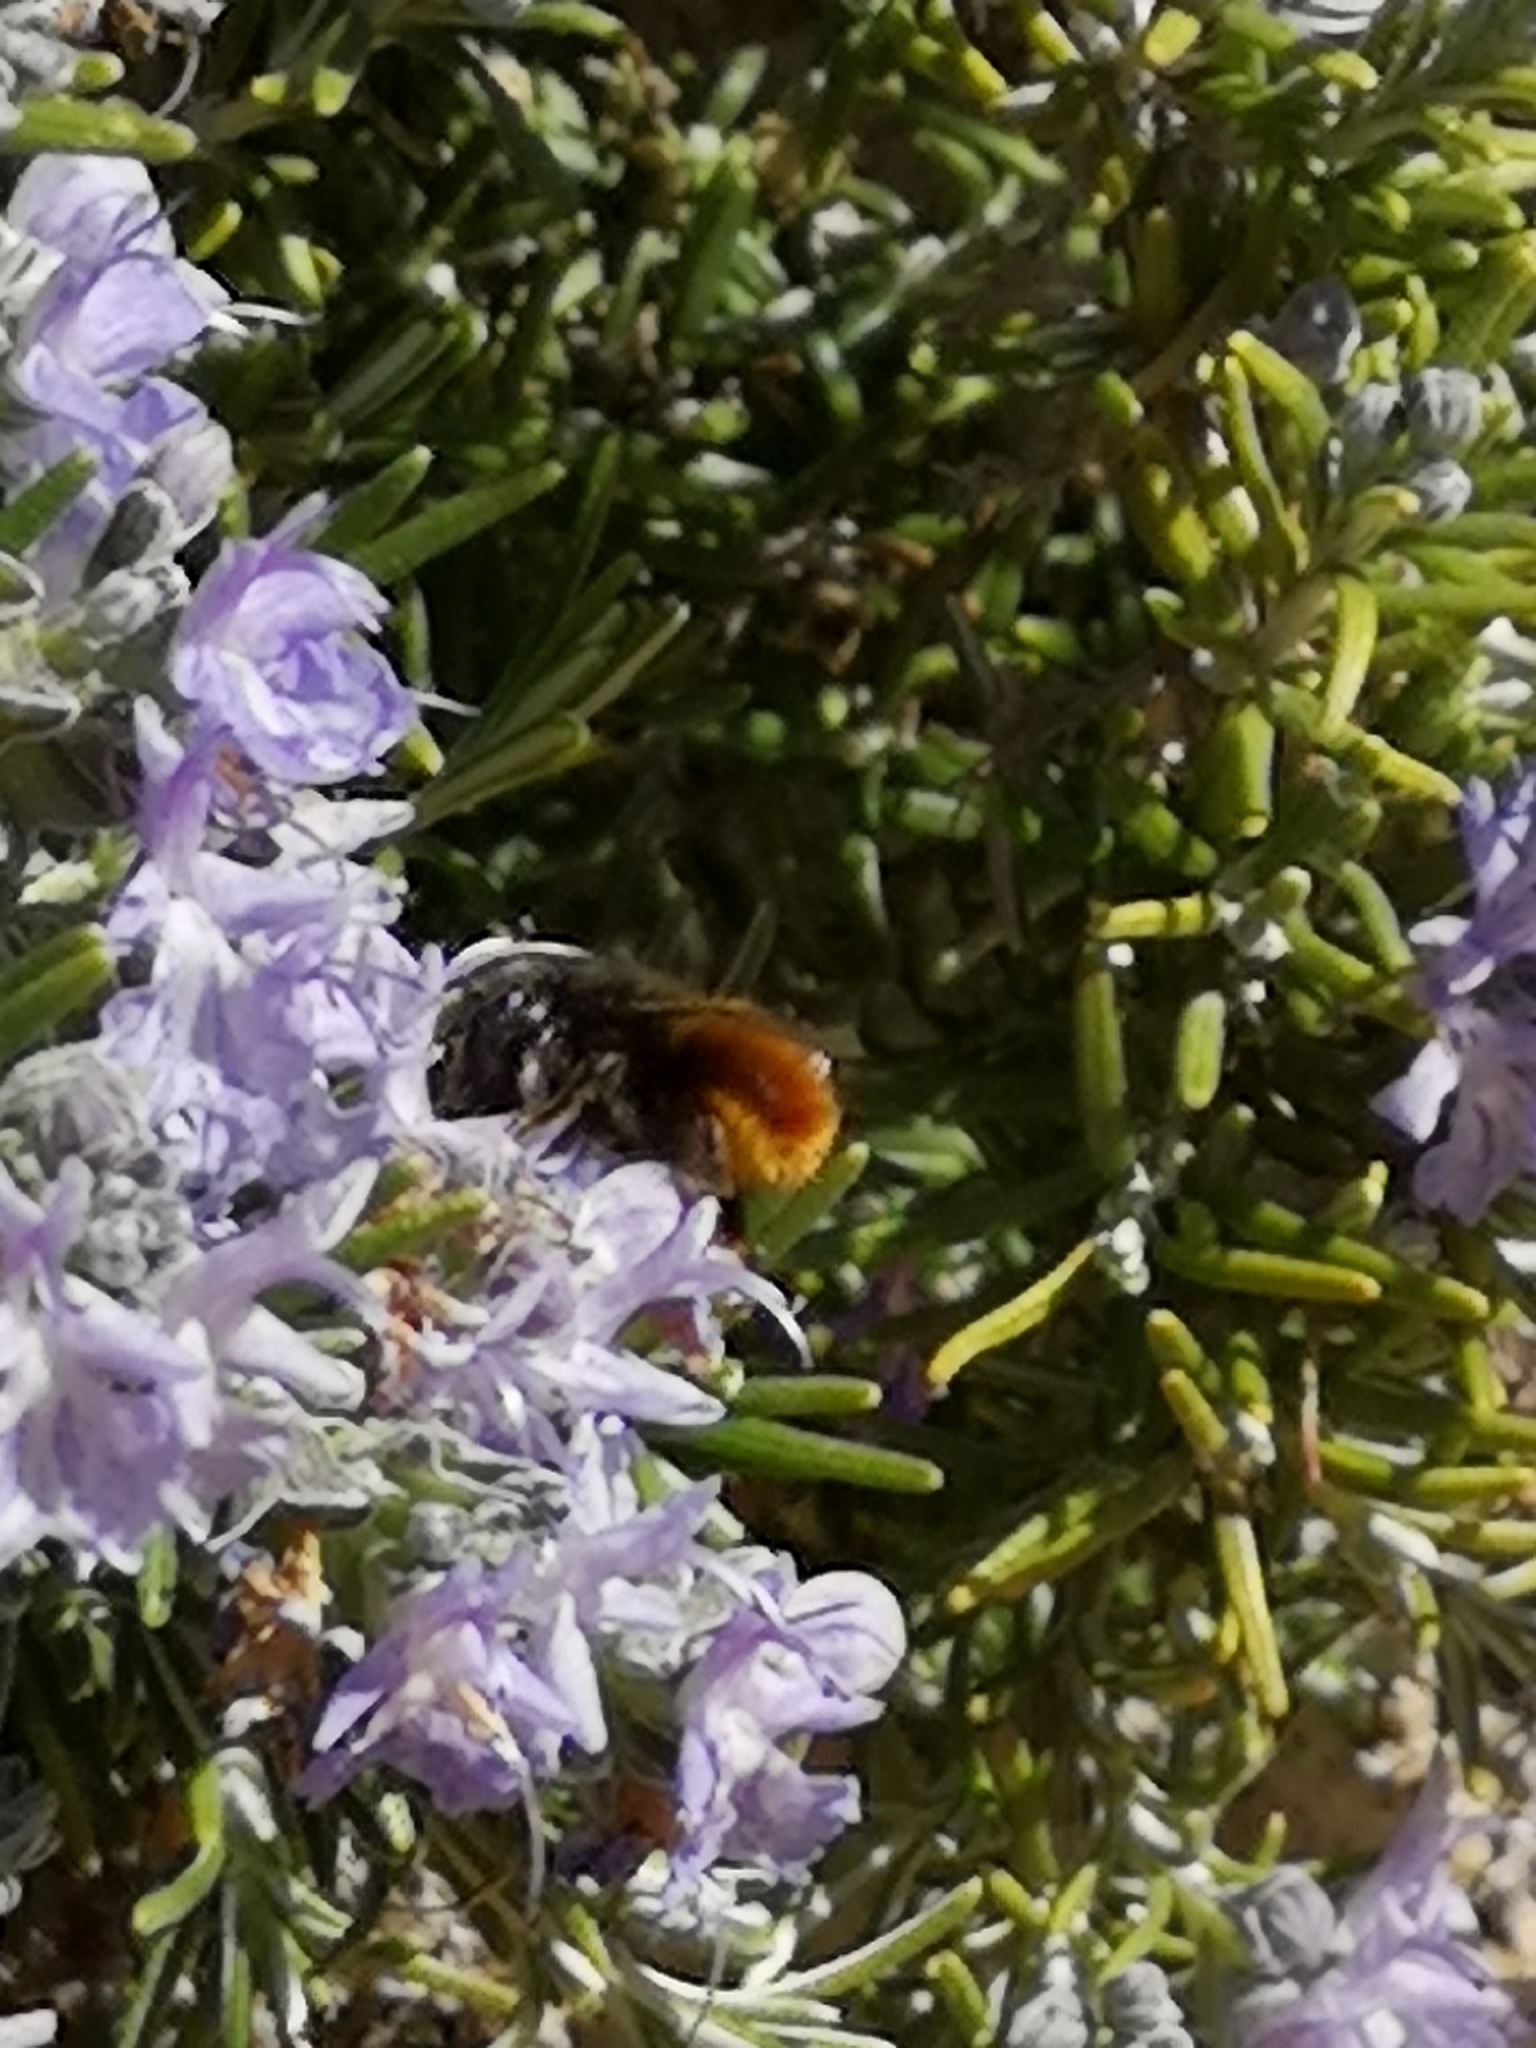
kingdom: Animalia
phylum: Arthropoda
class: Insecta
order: Hymenoptera
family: Megachilidae
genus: Osmia
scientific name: Osmia cornuta
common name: Mason bee
